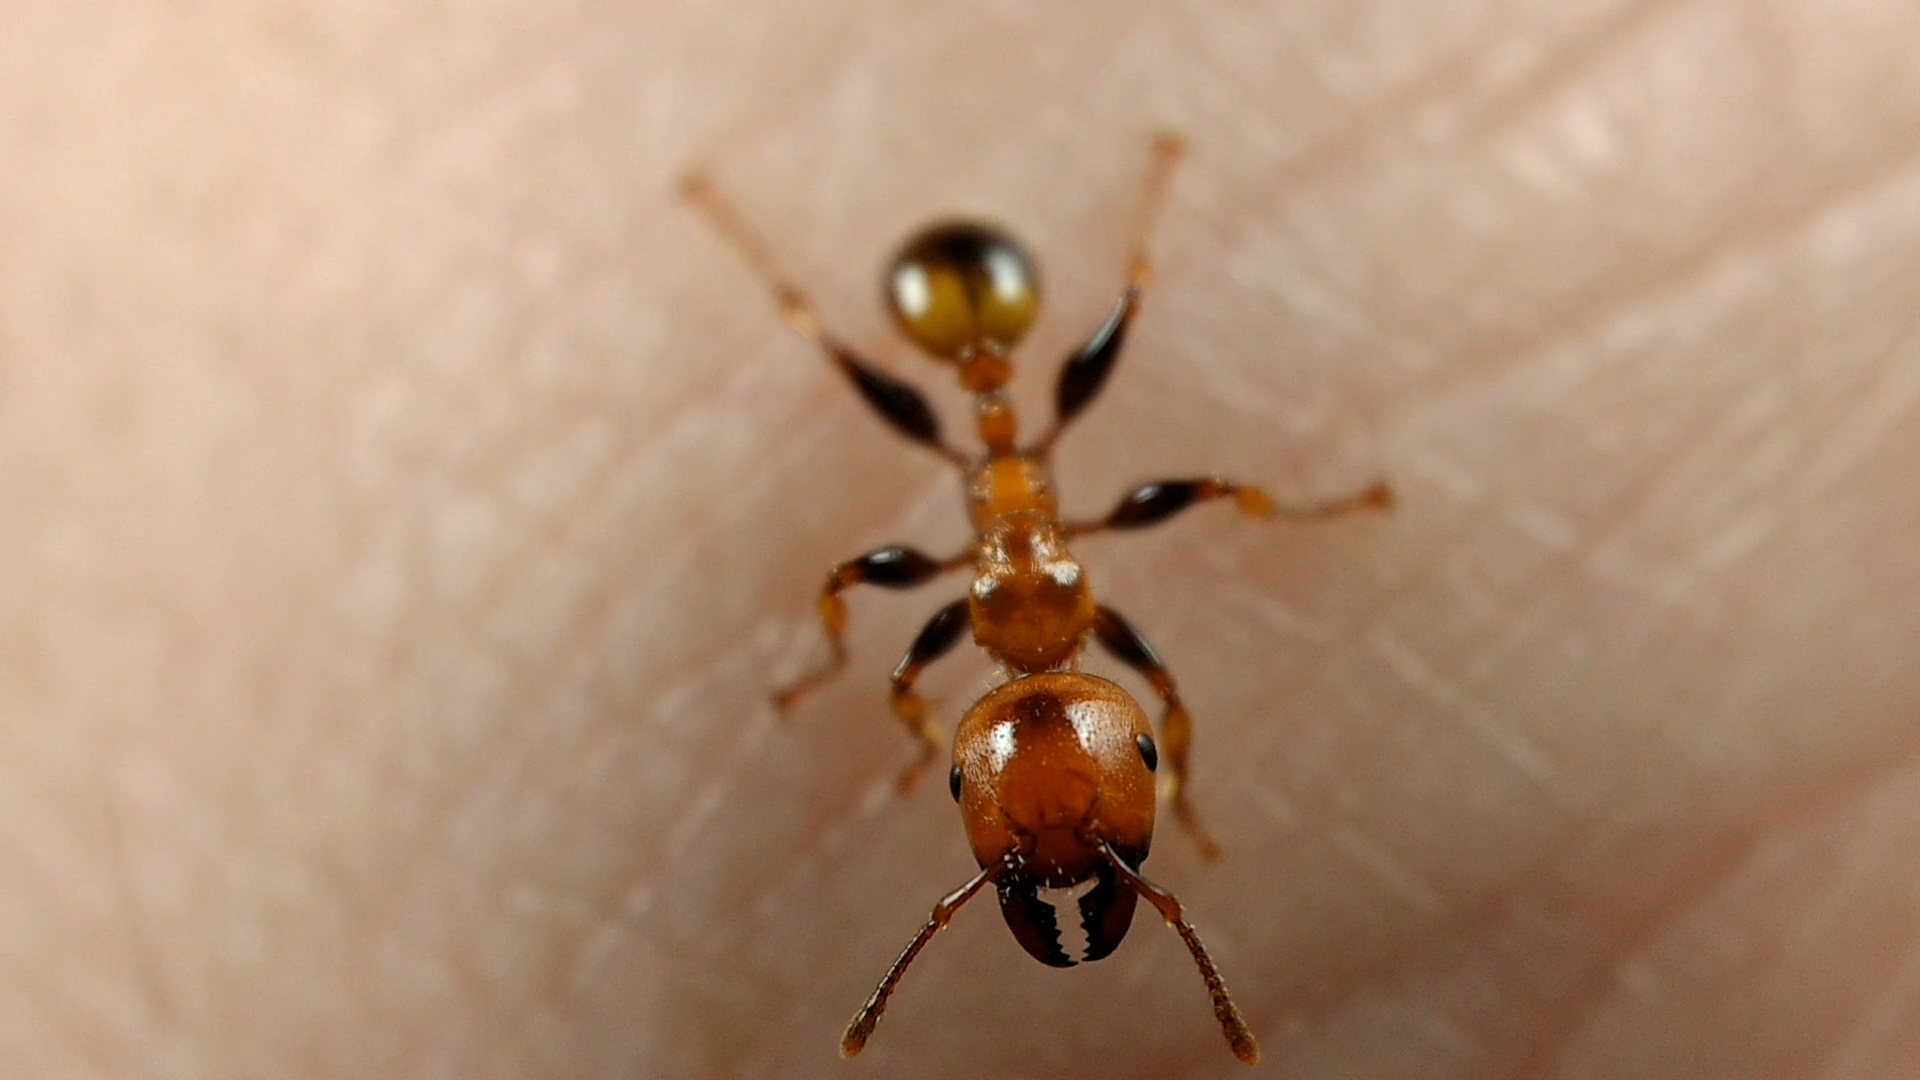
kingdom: Animalia
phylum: Arthropoda
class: Insecta
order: Hymenoptera
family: Formicidae
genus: Podomyrma
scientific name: Podomyrma femorata
